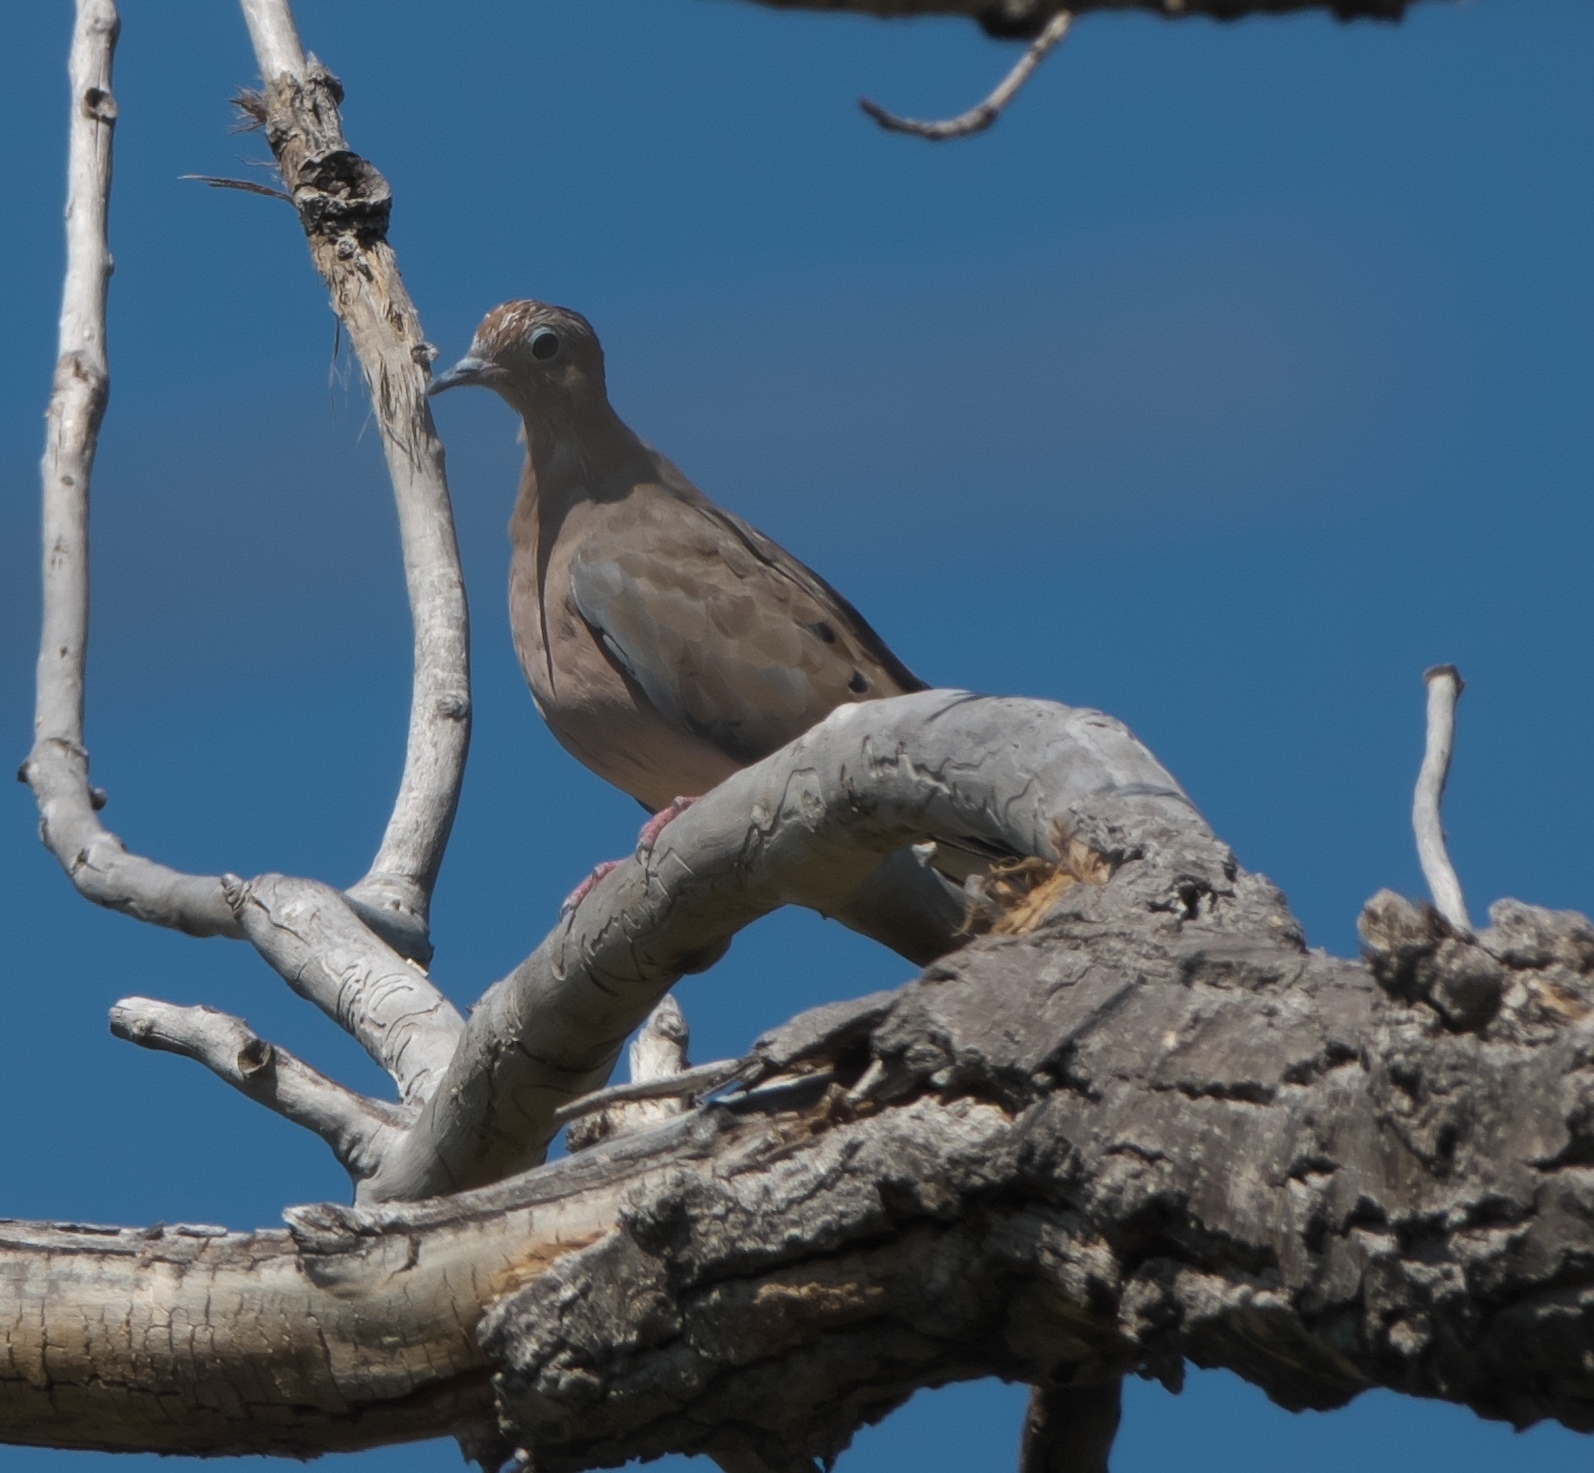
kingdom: Animalia
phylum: Chordata
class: Aves
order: Columbiformes
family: Columbidae
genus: Zenaida
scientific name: Zenaida macroura
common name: Mourning dove
